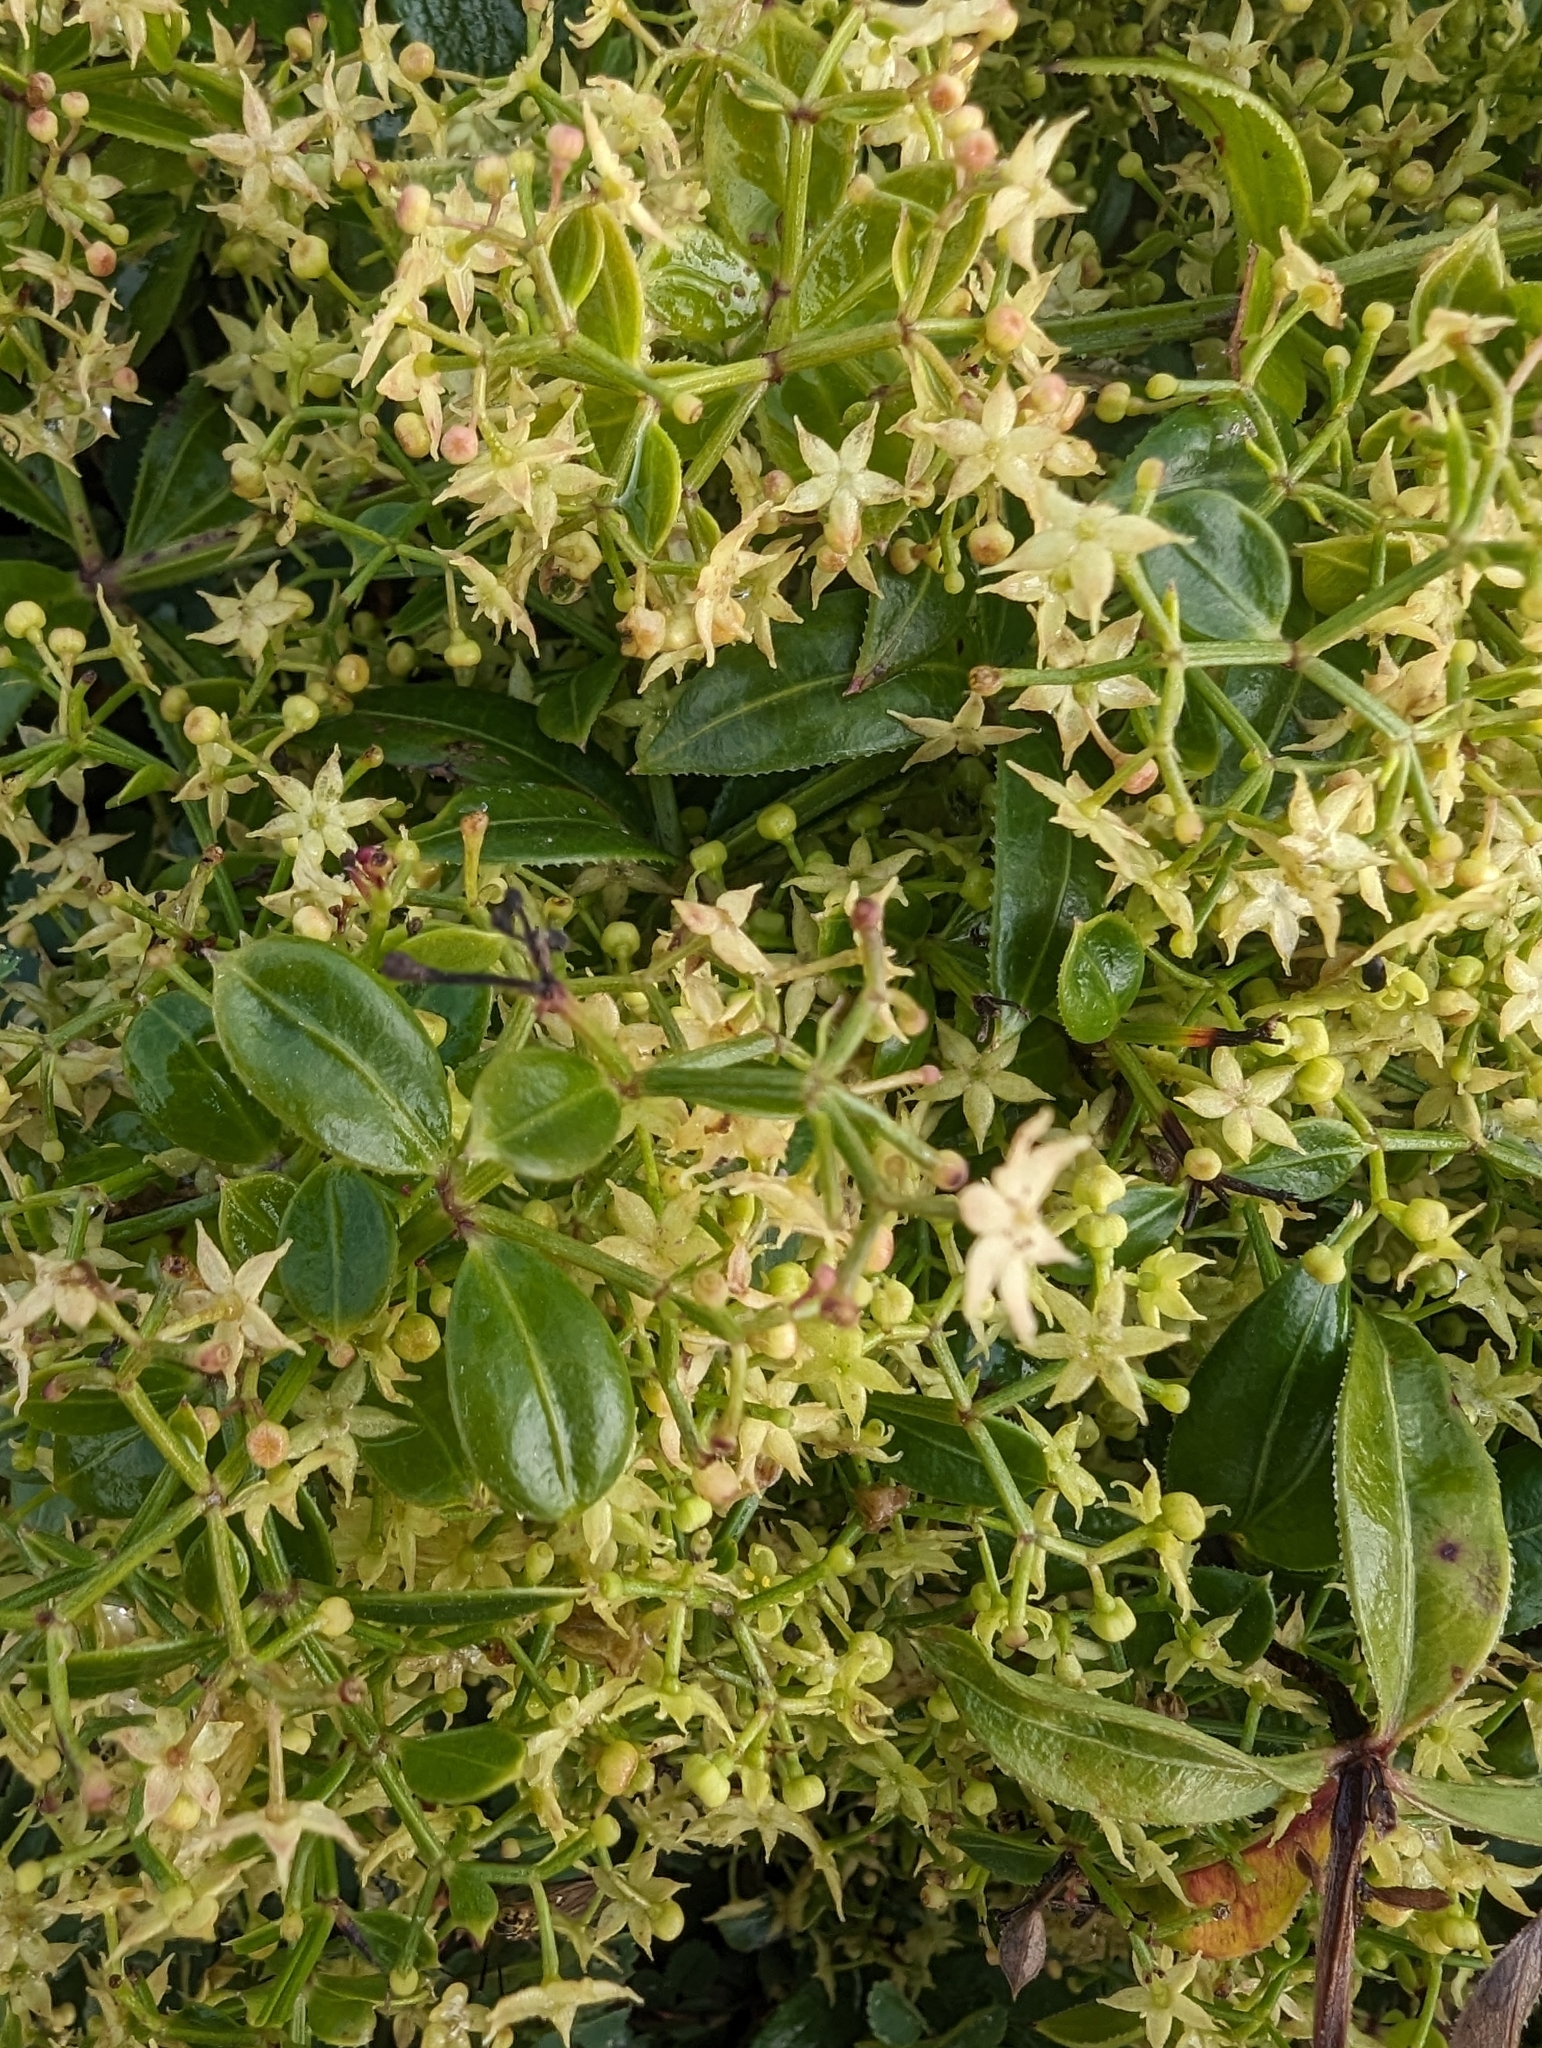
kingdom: Plantae
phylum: Tracheophyta
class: Magnoliopsida
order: Gentianales
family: Rubiaceae
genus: Rubia
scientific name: Rubia peregrina
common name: Wild madder
